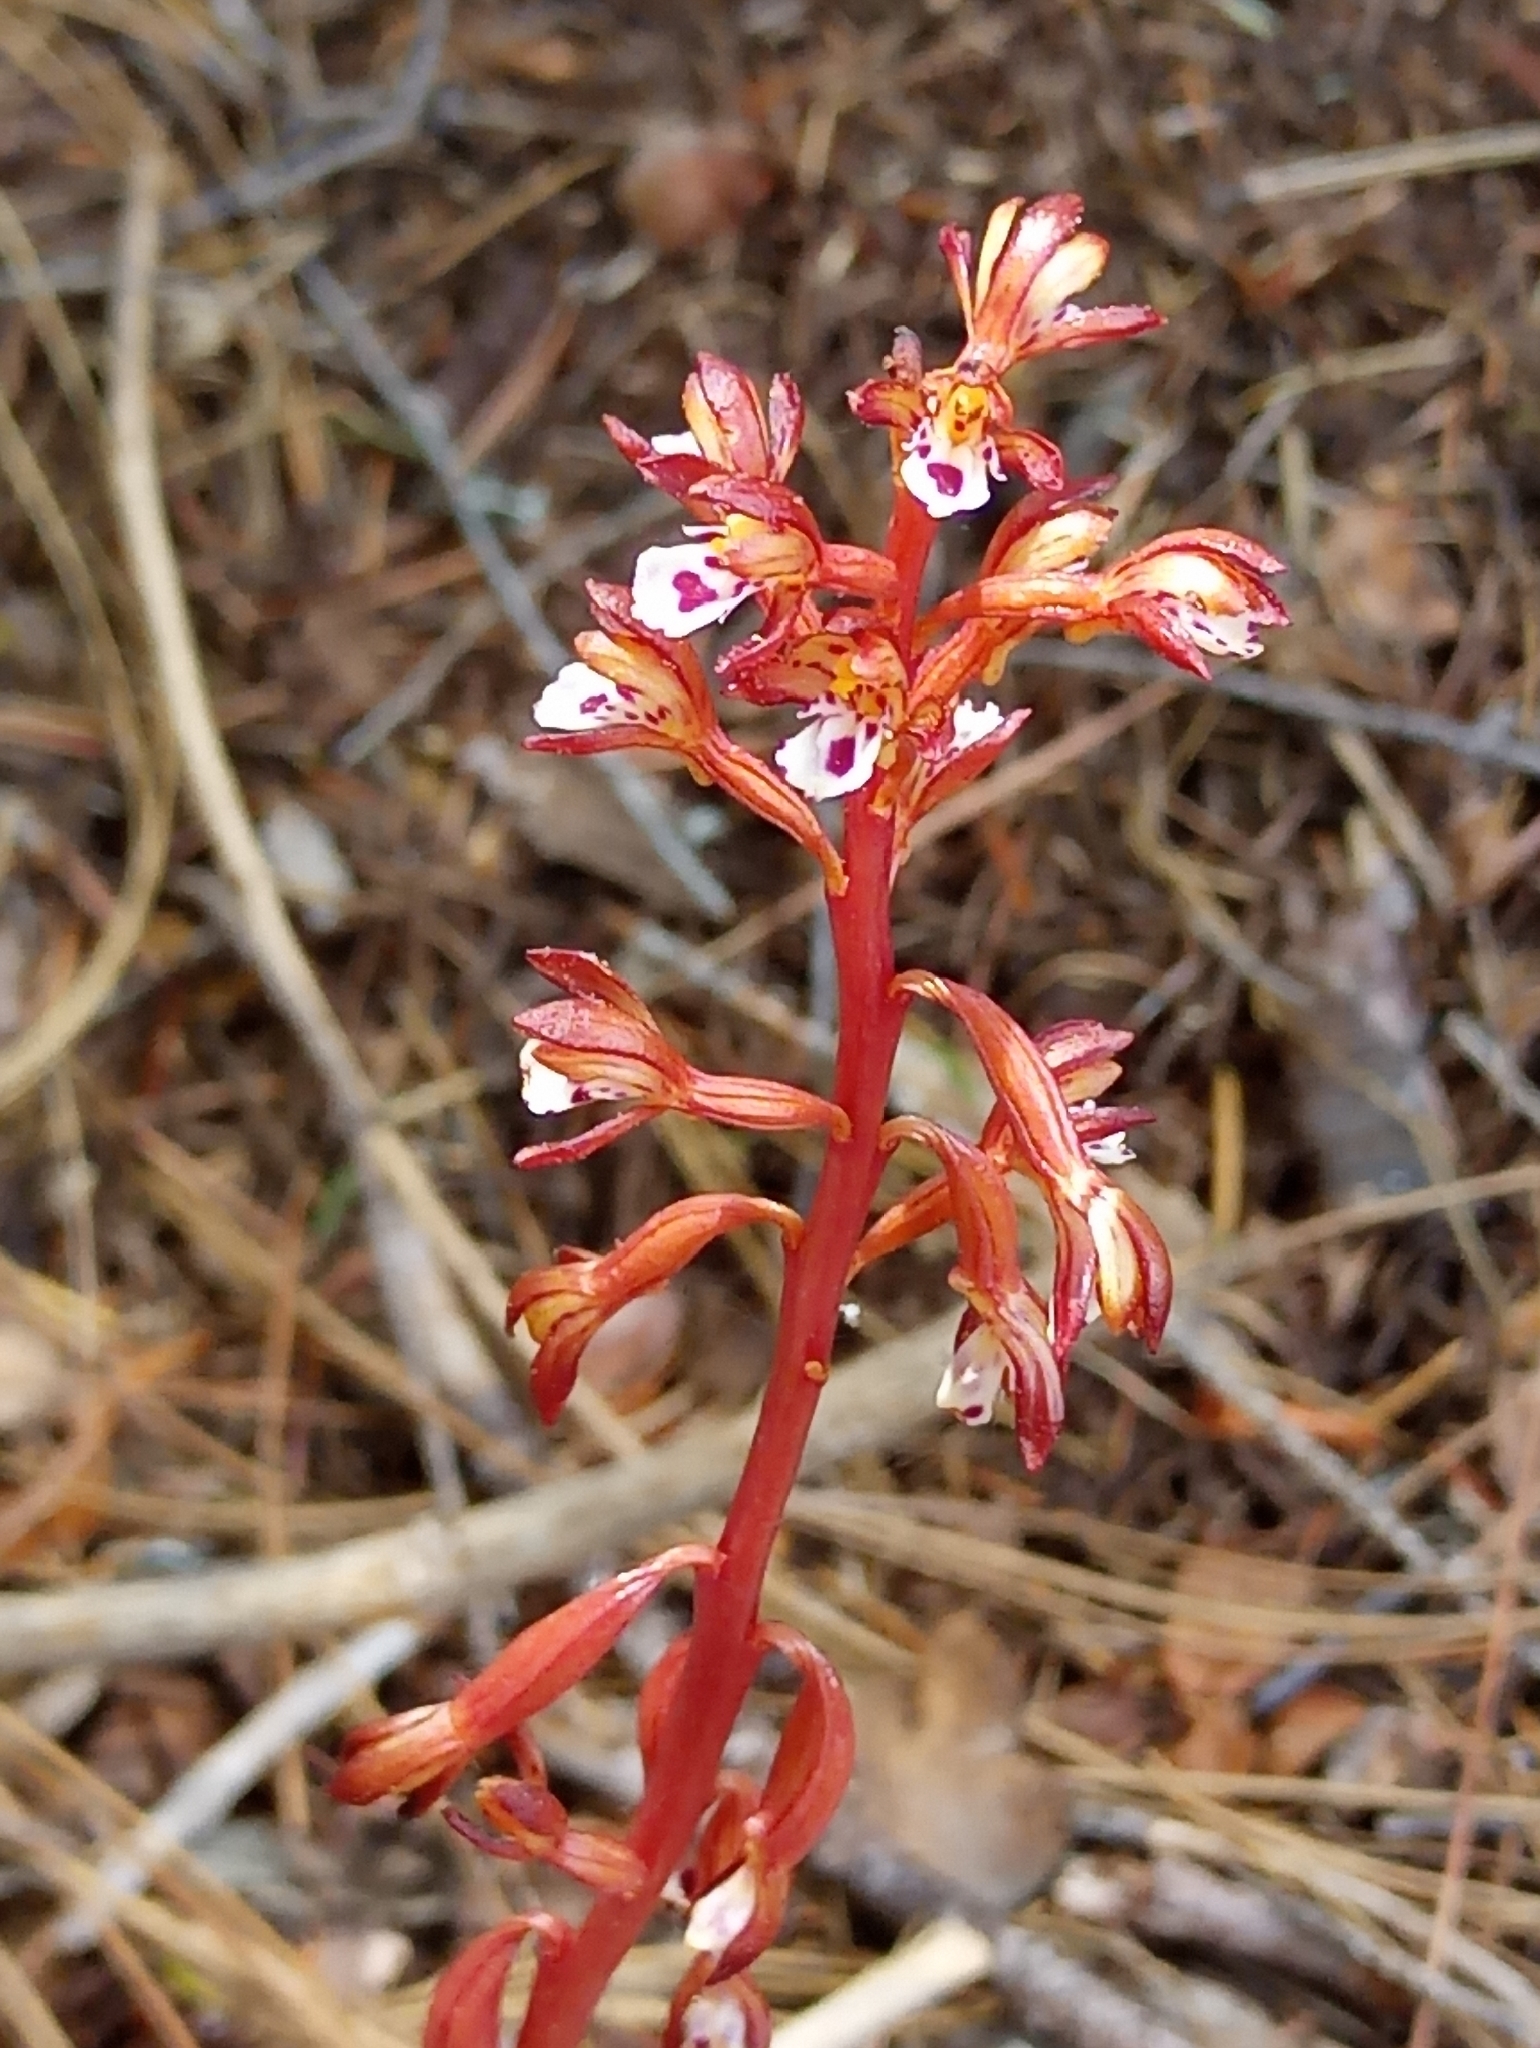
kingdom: Plantae
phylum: Tracheophyta
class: Liliopsida
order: Asparagales
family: Orchidaceae
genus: Corallorhiza
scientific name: Corallorhiza maculata
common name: Spotted coralroot
